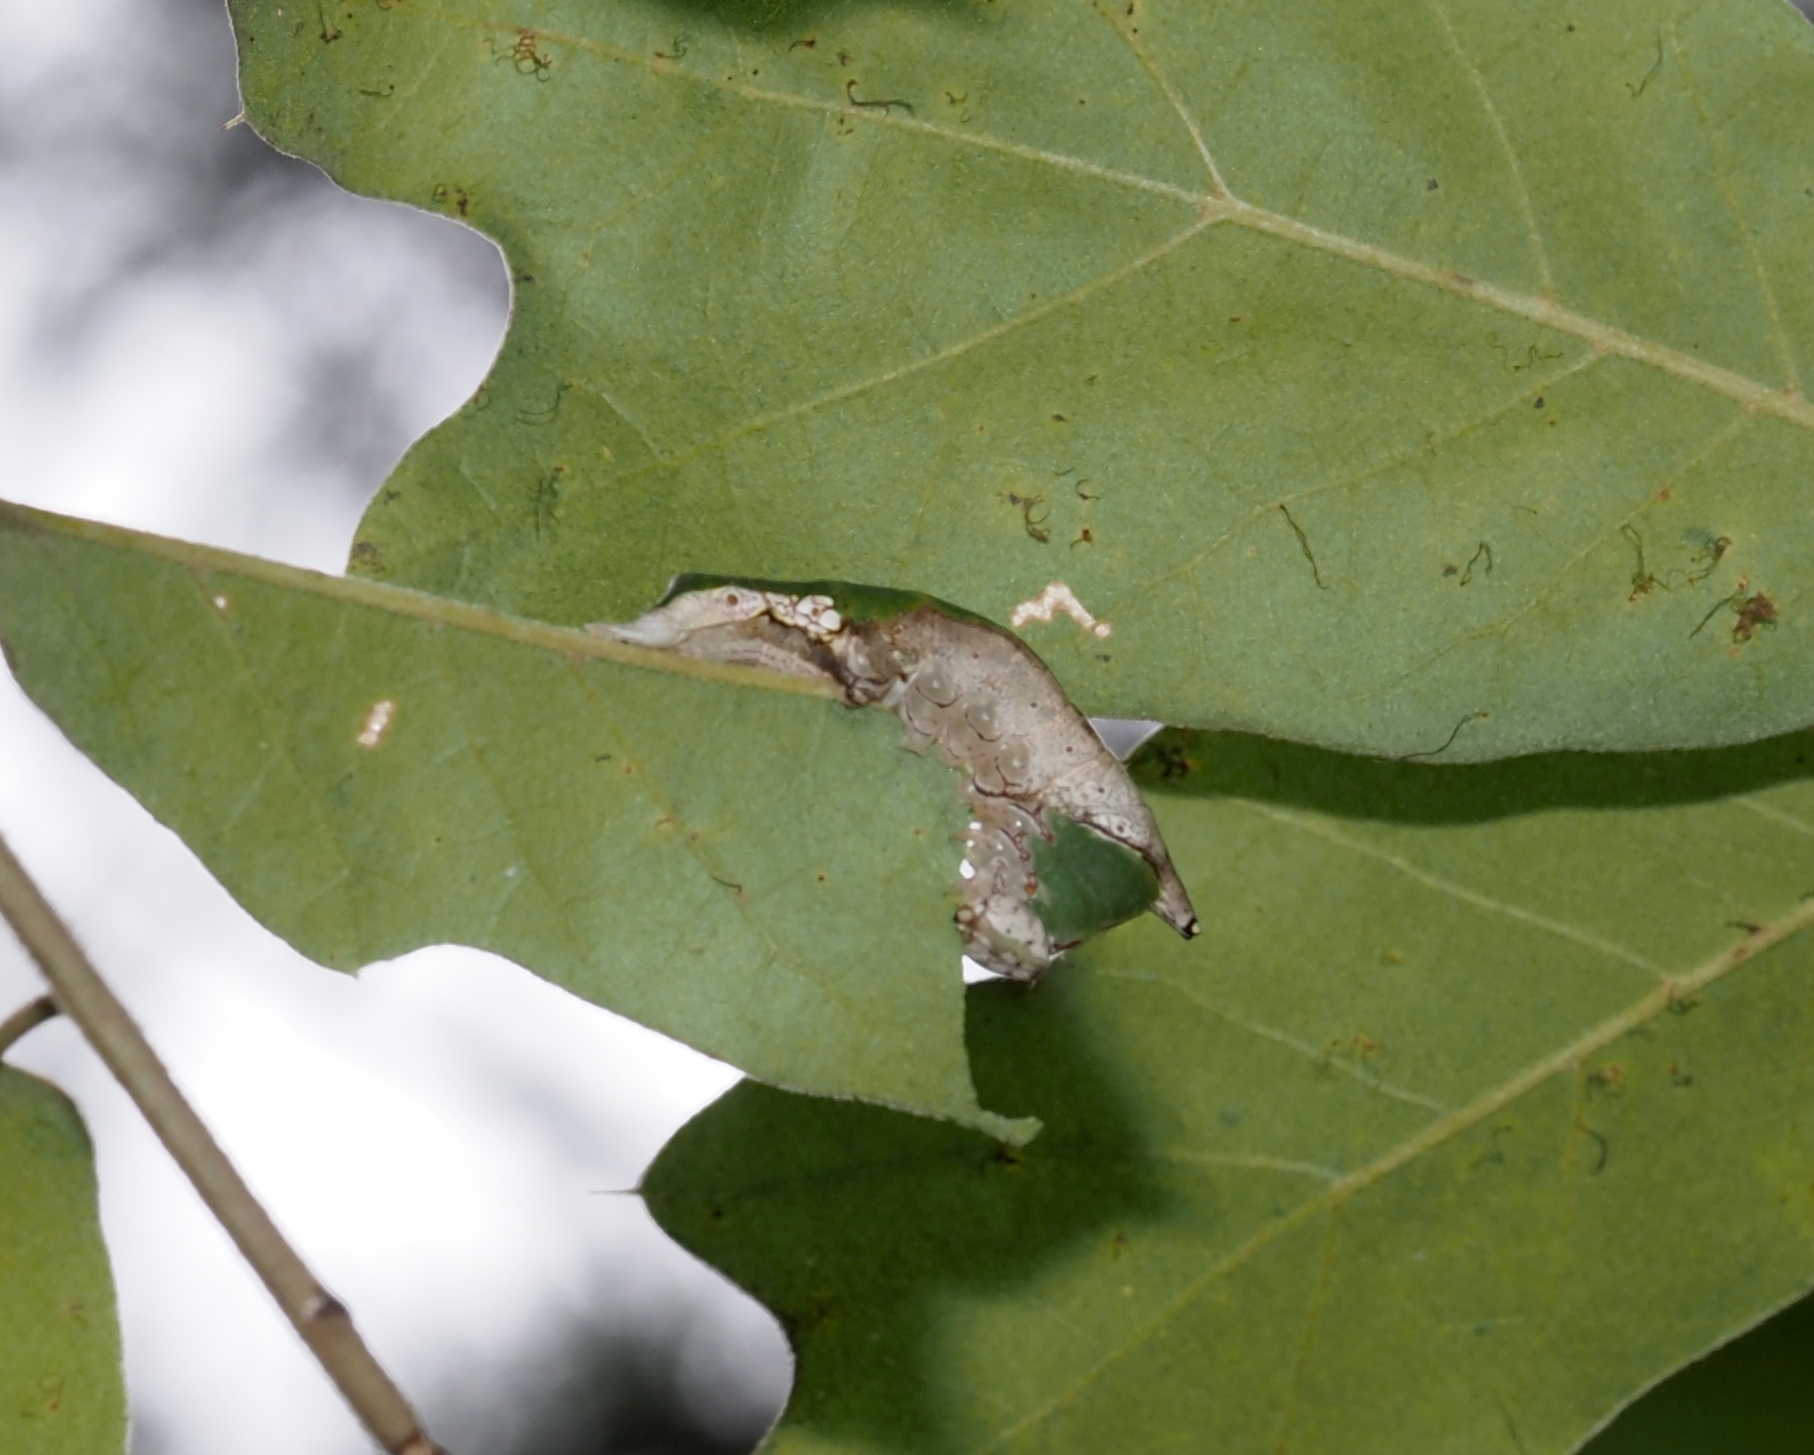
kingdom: Animalia
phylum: Arthropoda
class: Insecta
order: Lepidoptera
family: Notodontidae
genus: Oligocentria
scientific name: Oligocentria Ianassa lignicolor
